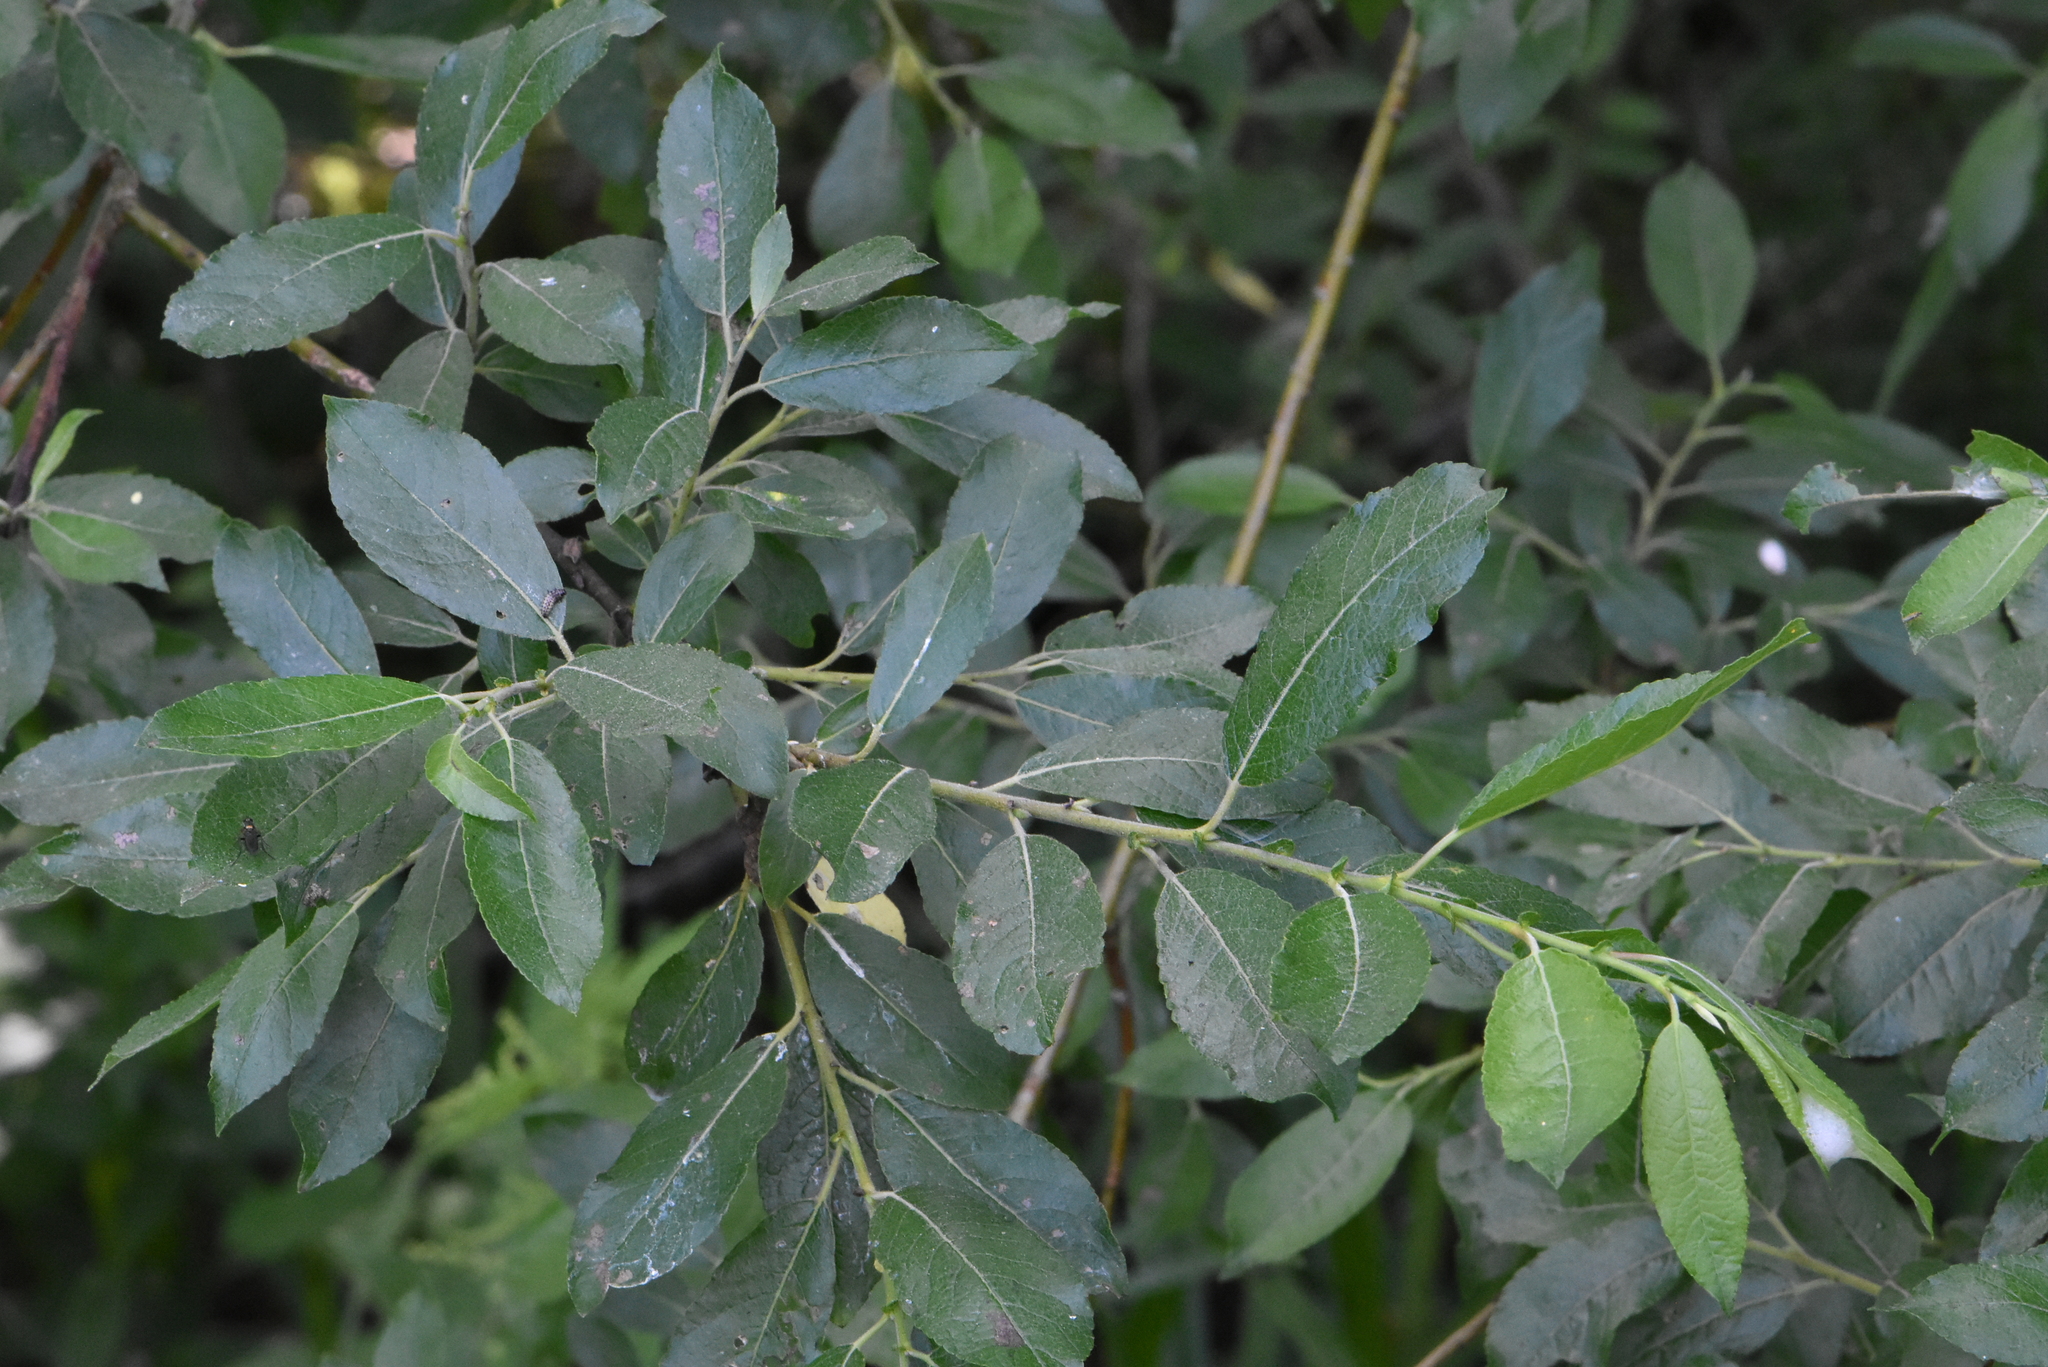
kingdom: Plantae
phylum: Tracheophyta
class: Magnoliopsida
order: Malpighiales
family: Salicaceae
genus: Salix
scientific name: Salix myrsinifolia
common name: Dark-leaved willow
